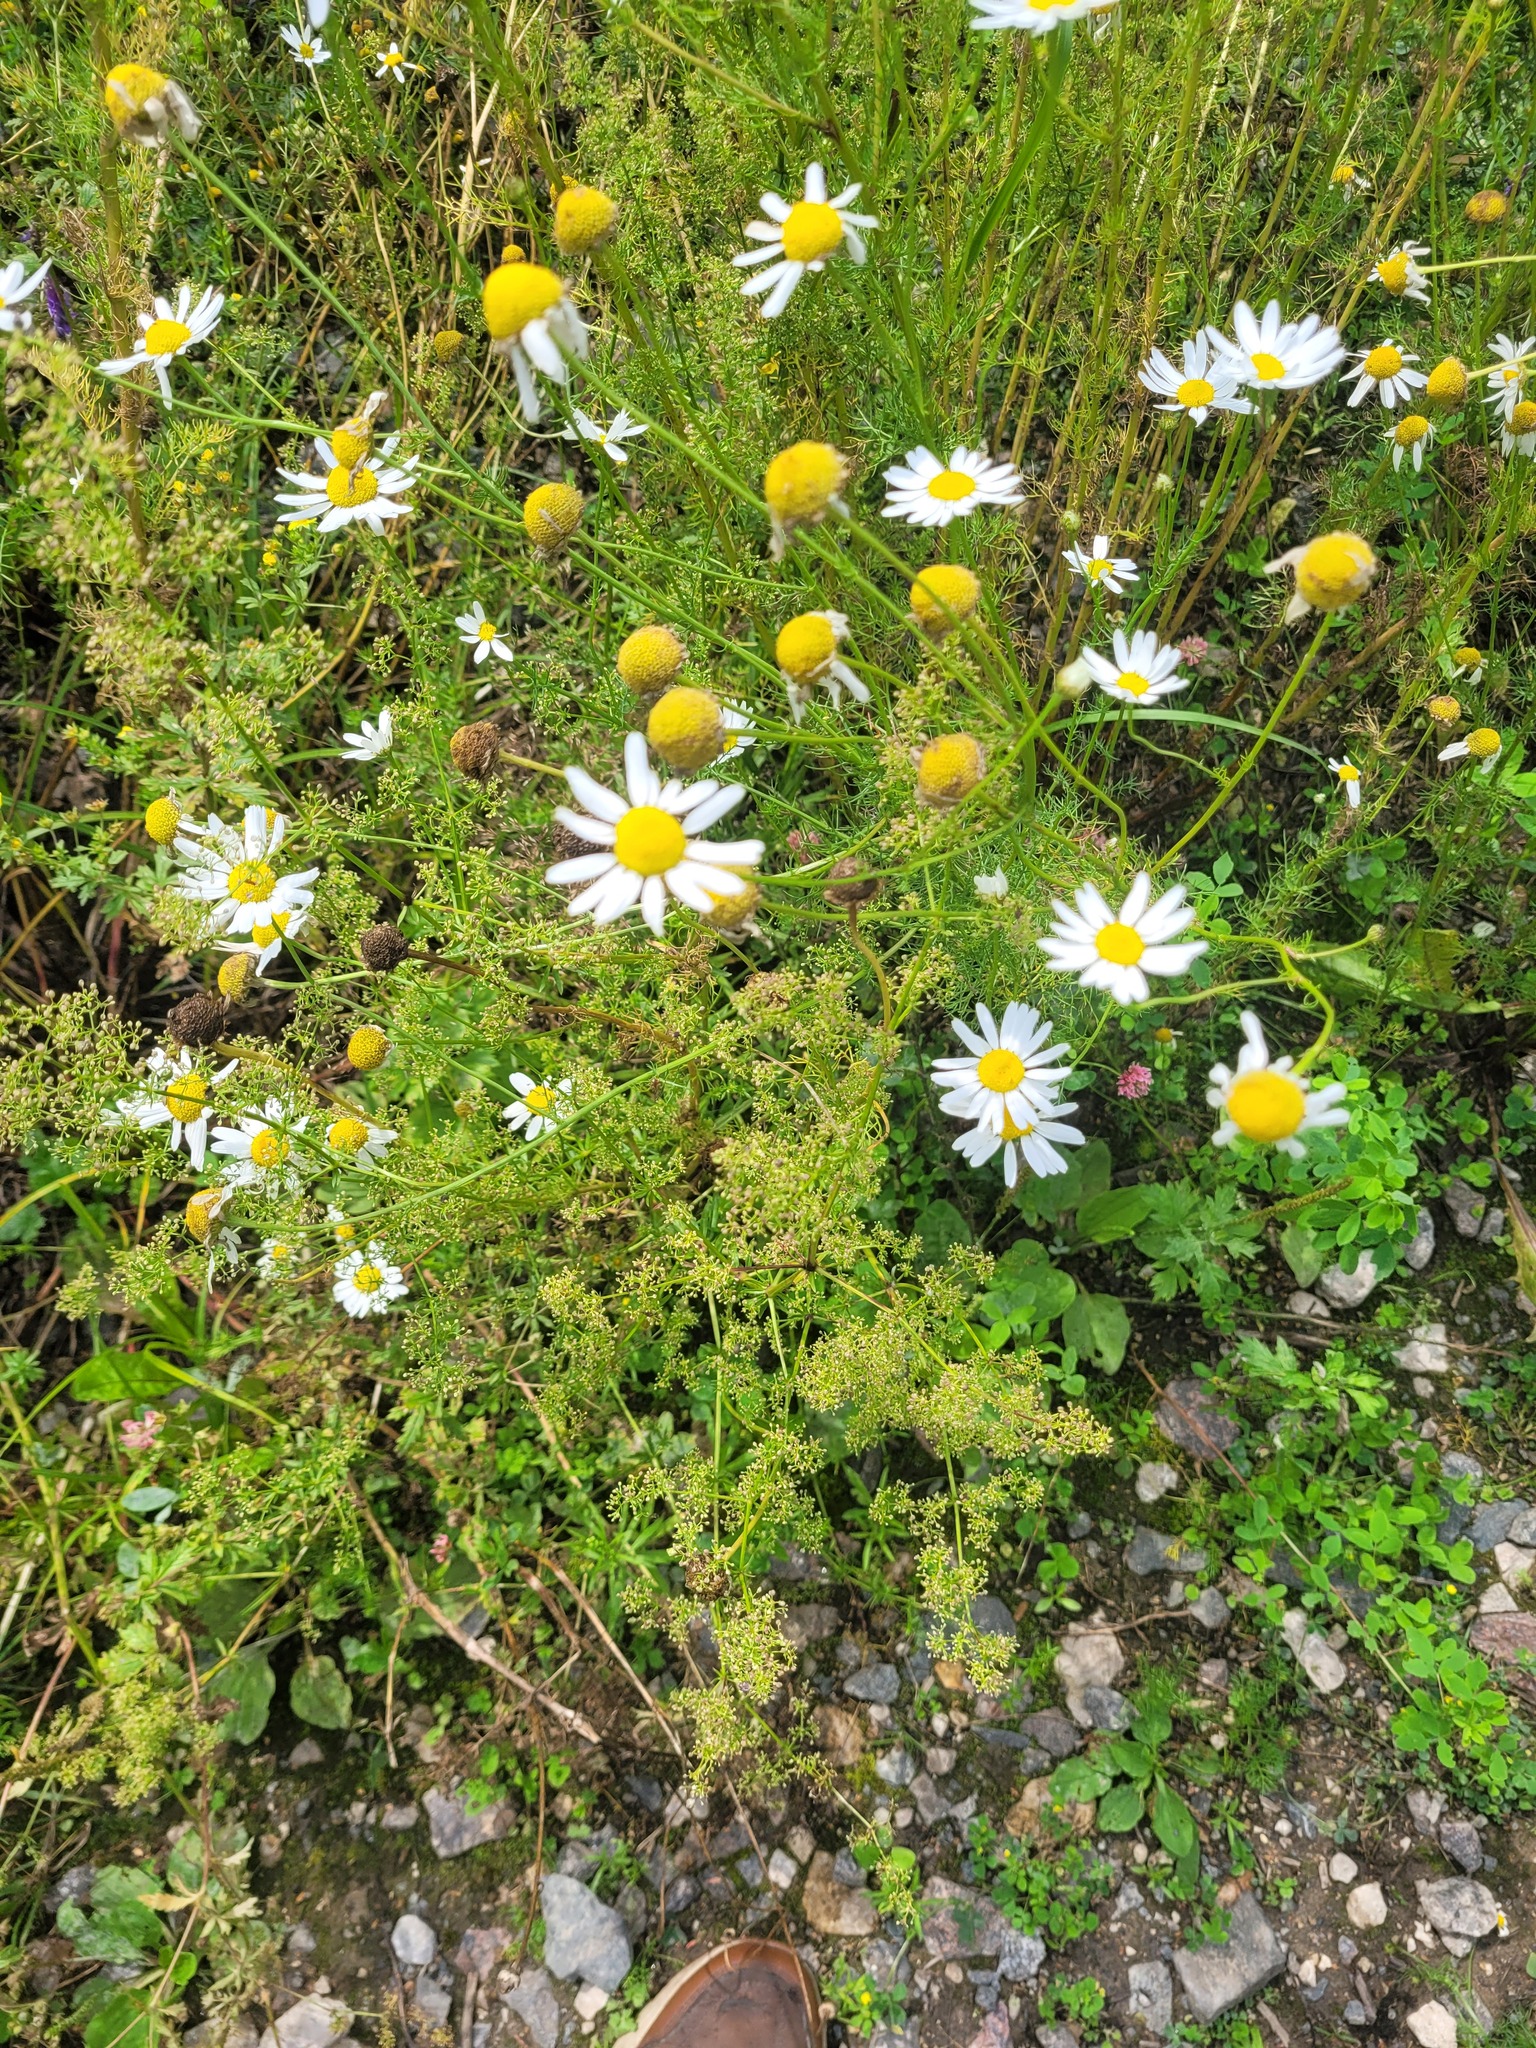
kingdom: Plantae
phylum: Tracheophyta
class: Magnoliopsida
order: Gentianales
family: Rubiaceae
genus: Galium
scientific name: Galium mollugo
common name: Hedge bedstraw
